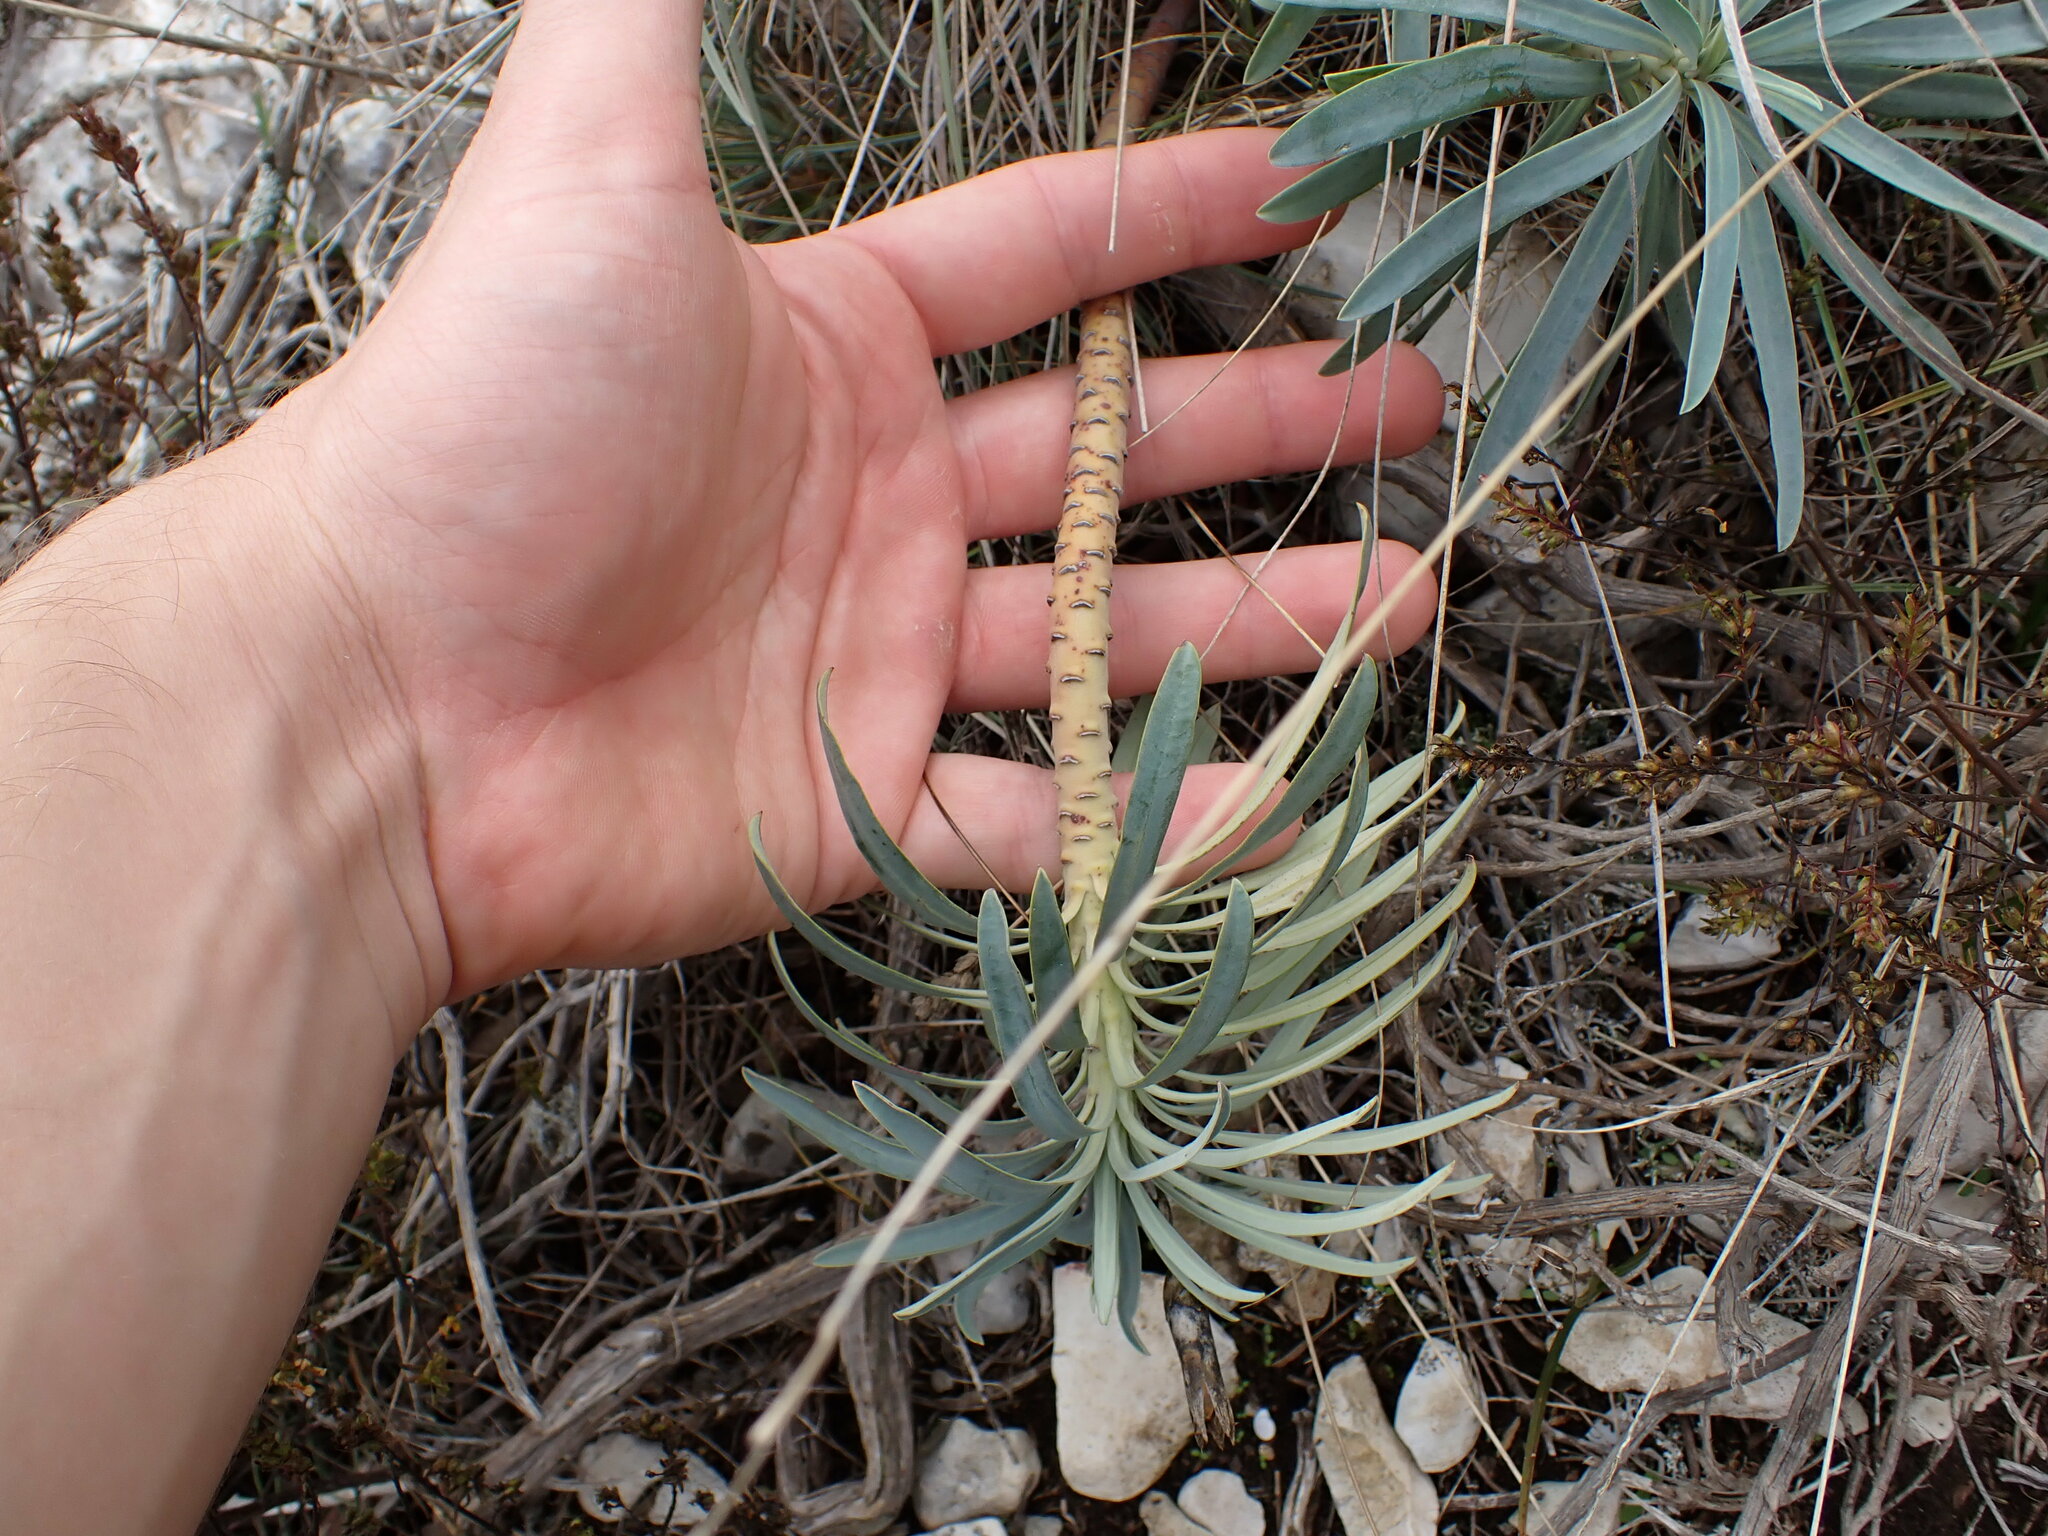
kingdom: Plantae
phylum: Tracheophyta
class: Magnoliopsida
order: Malpighiales
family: Euphorbiaceae
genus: Euphorbia
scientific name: Euphorbia characias
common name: Mediterranean spurge
